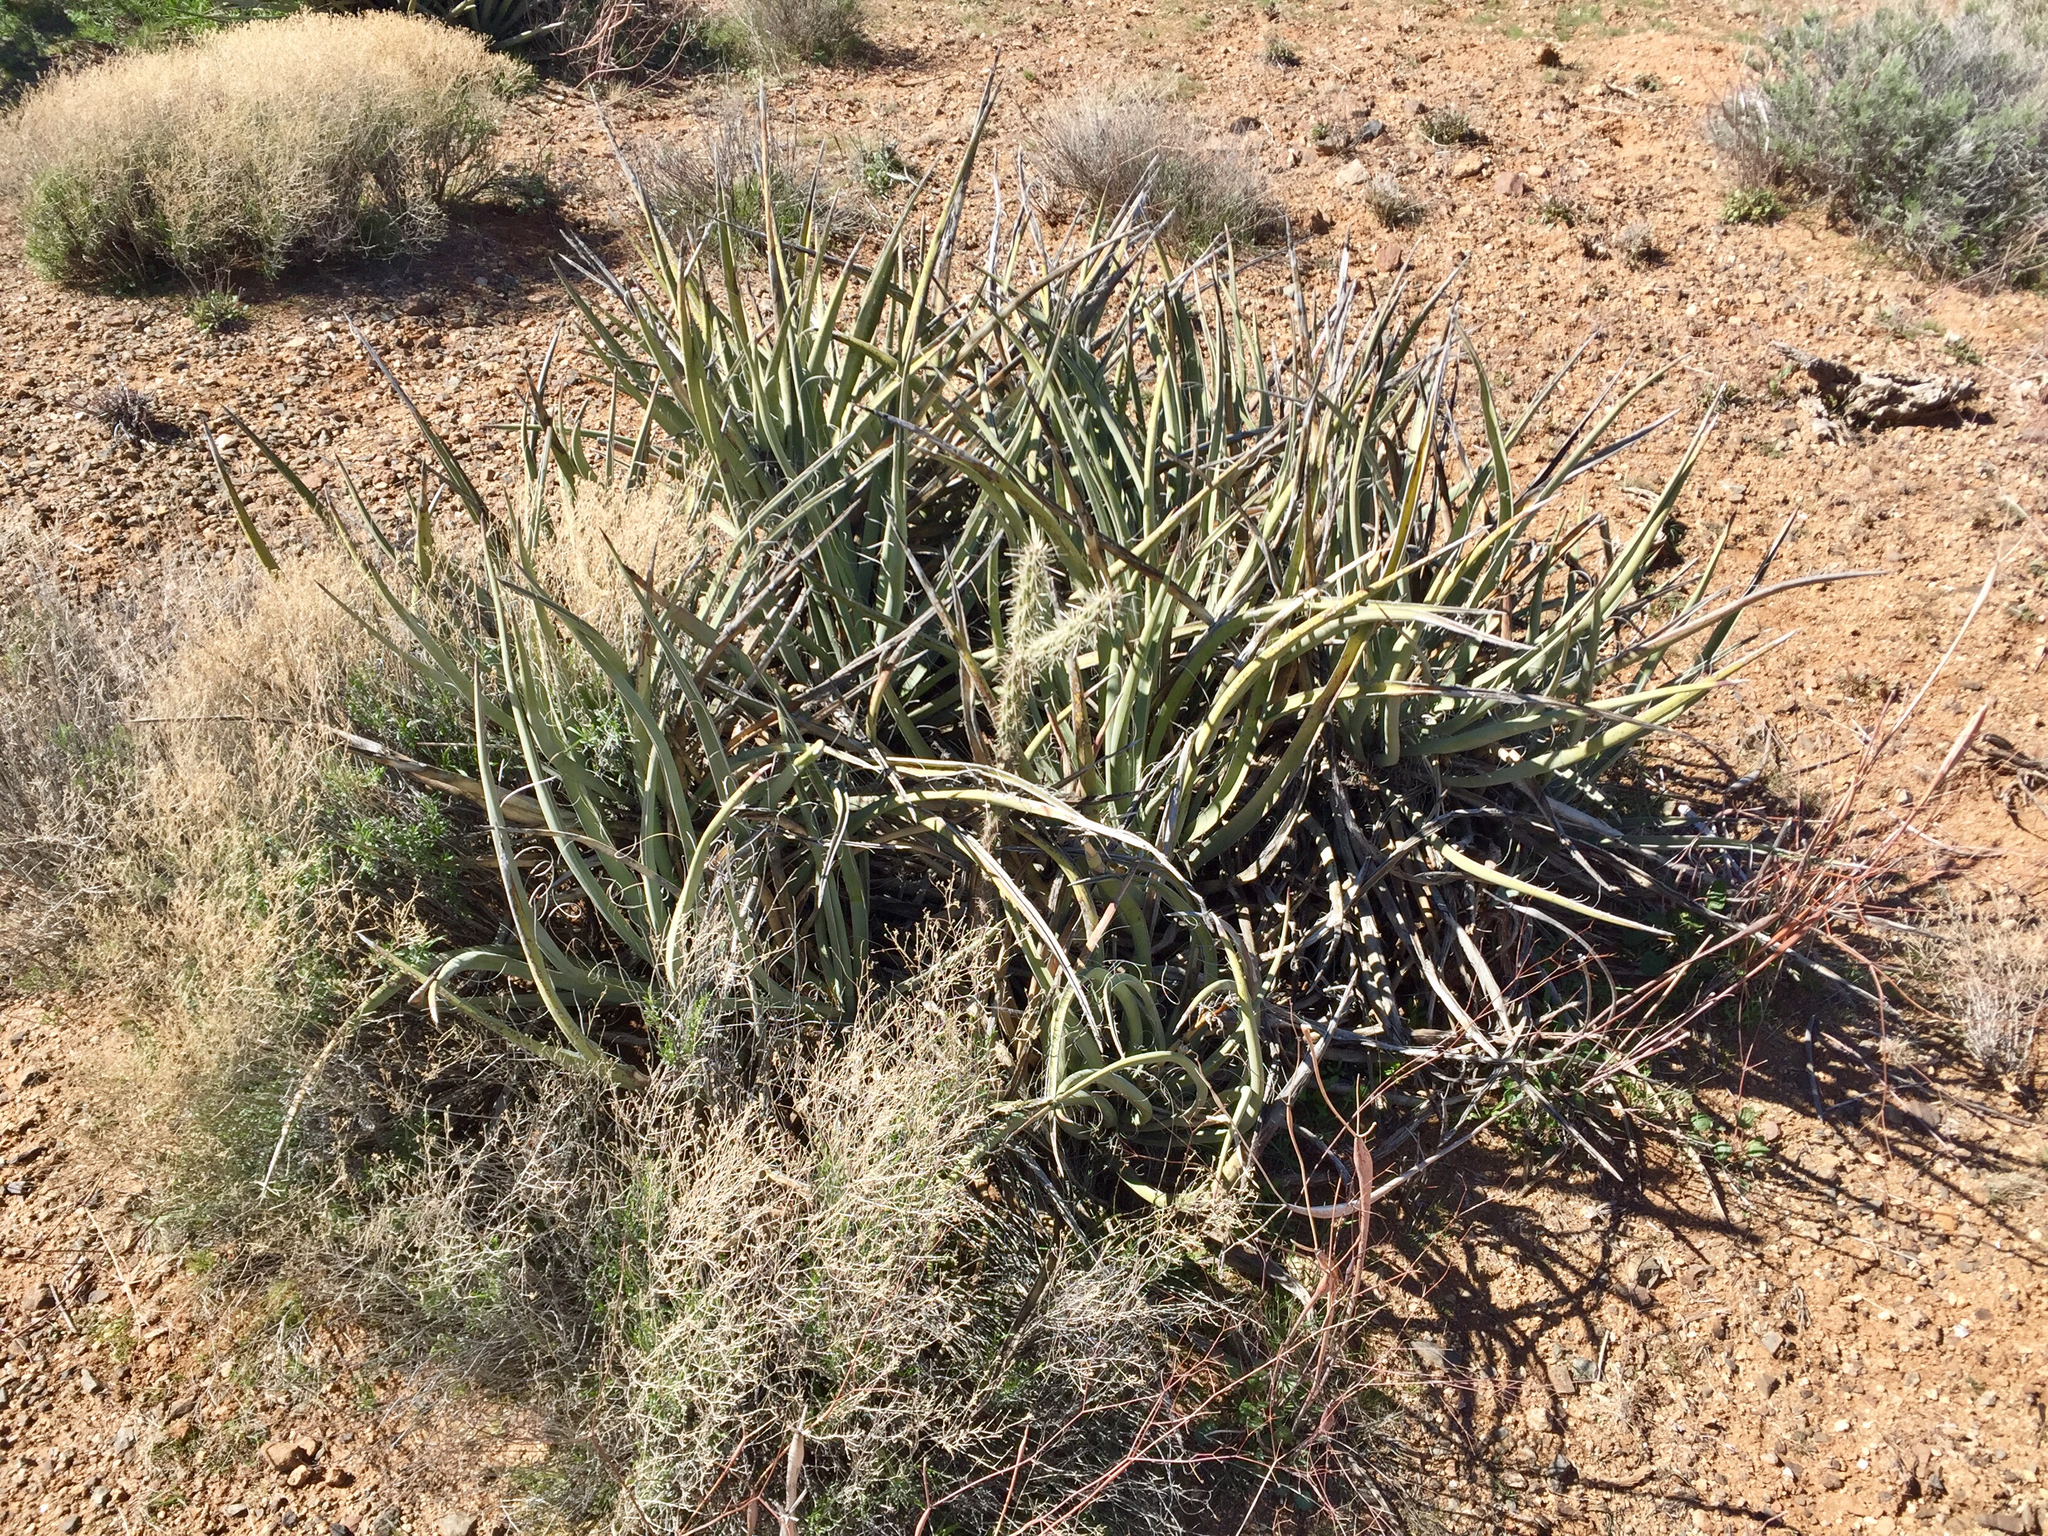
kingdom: Plantae
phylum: Tracheophyta
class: Liliopsida
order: Asparagales
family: Asparagaceae
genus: Yucca
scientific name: Yucca baccata
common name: Banana yucca
